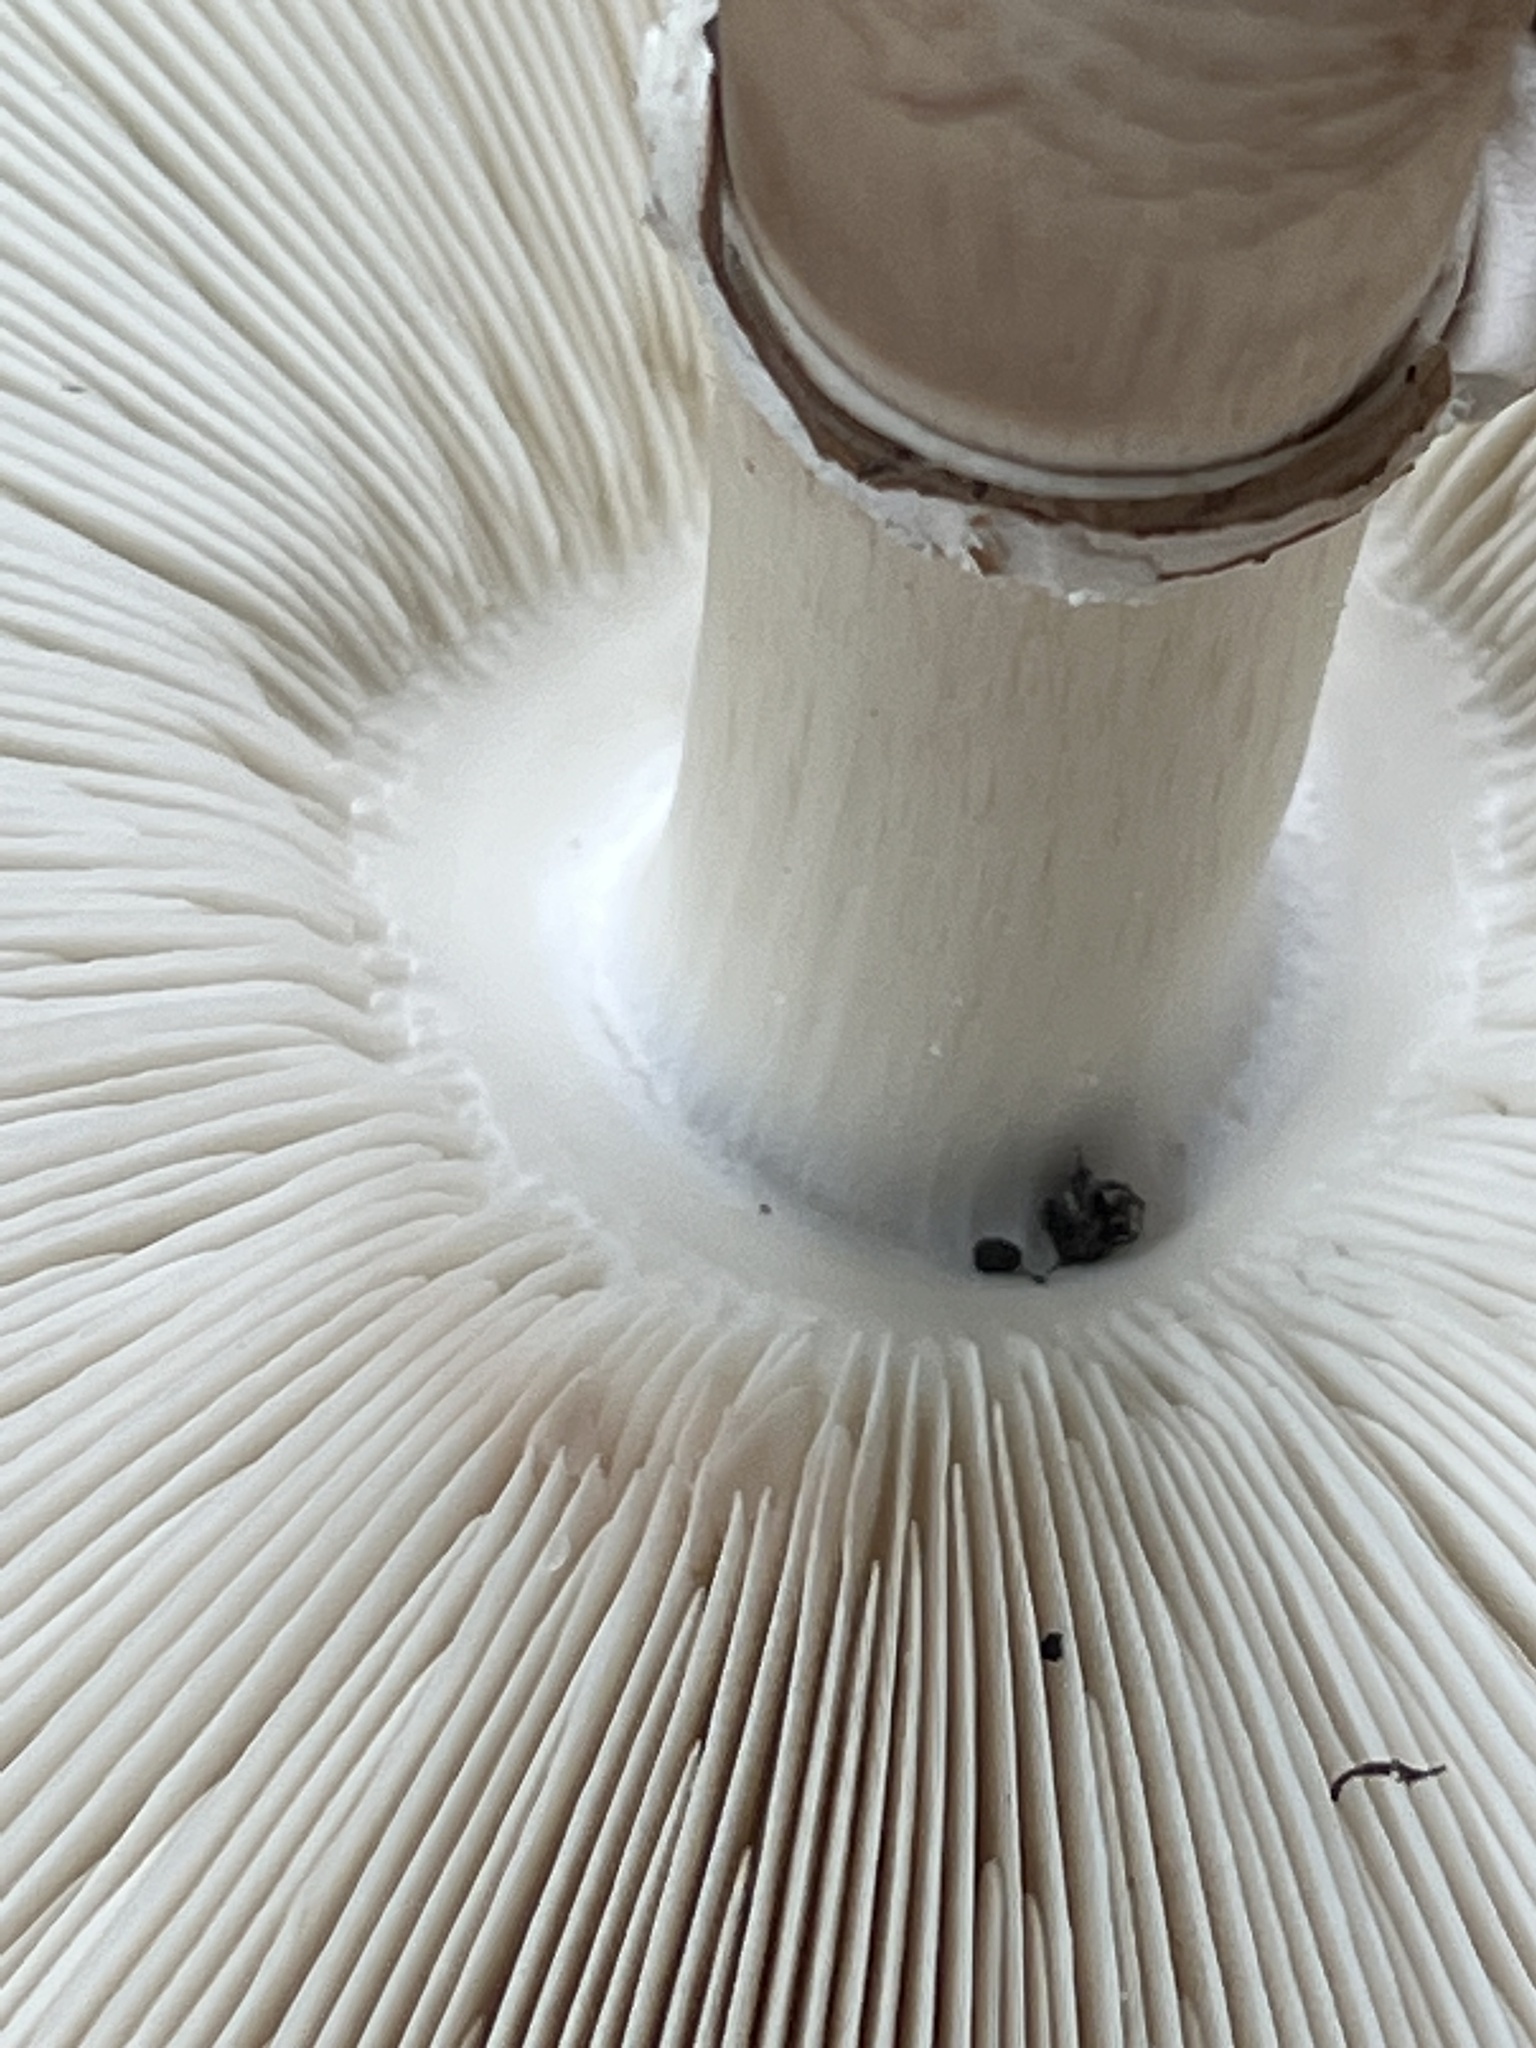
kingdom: Fungi
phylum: Basidiomycota
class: Agaricomycetes
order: Agaricales
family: Agaricaceae
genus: Chlorophyllum
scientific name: Chlorophyllum molybdites
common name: False parasol
